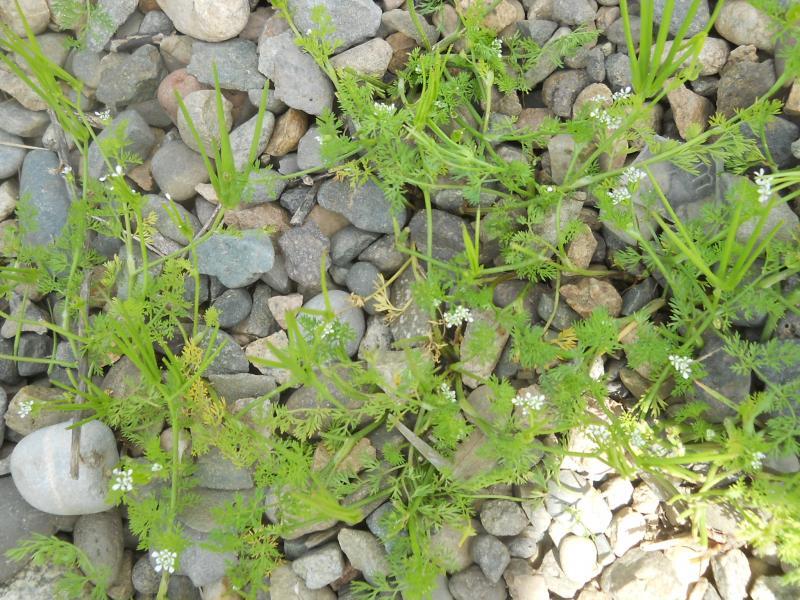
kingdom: Plantae
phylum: Tracheophyta
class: Magnoliopsida
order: Apiales
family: Apiaceae
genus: Scandix
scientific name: Scandix pecten-veneris
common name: Shepherd's-needle
